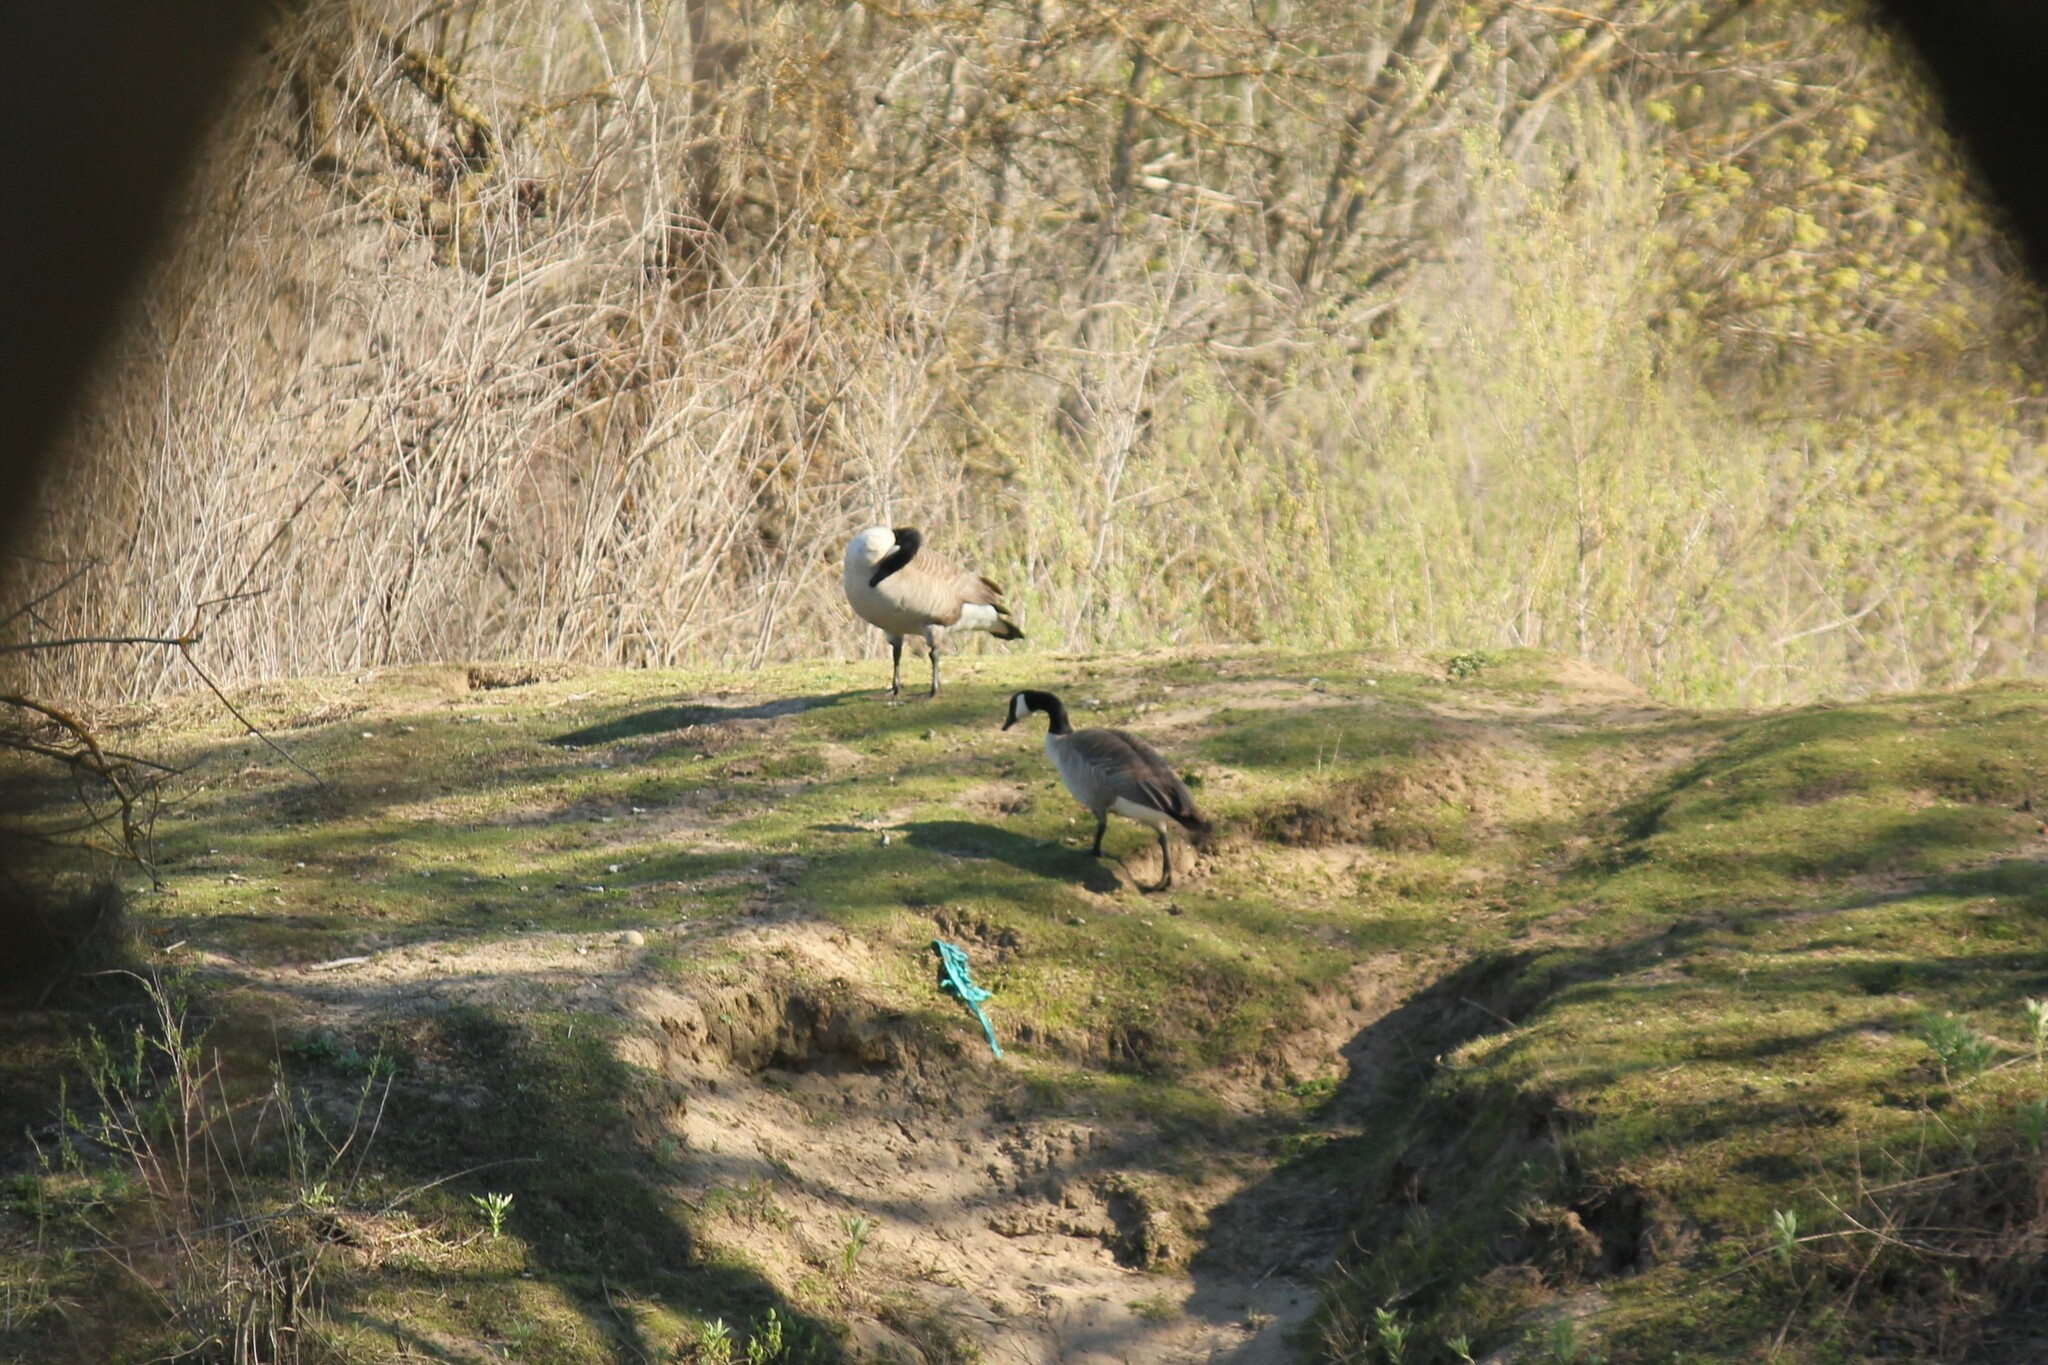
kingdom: Animalia
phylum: Chordata
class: Aves
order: Anseriformes
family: Anatidae
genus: Branta
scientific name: Branta canadensis
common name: Canada goose
